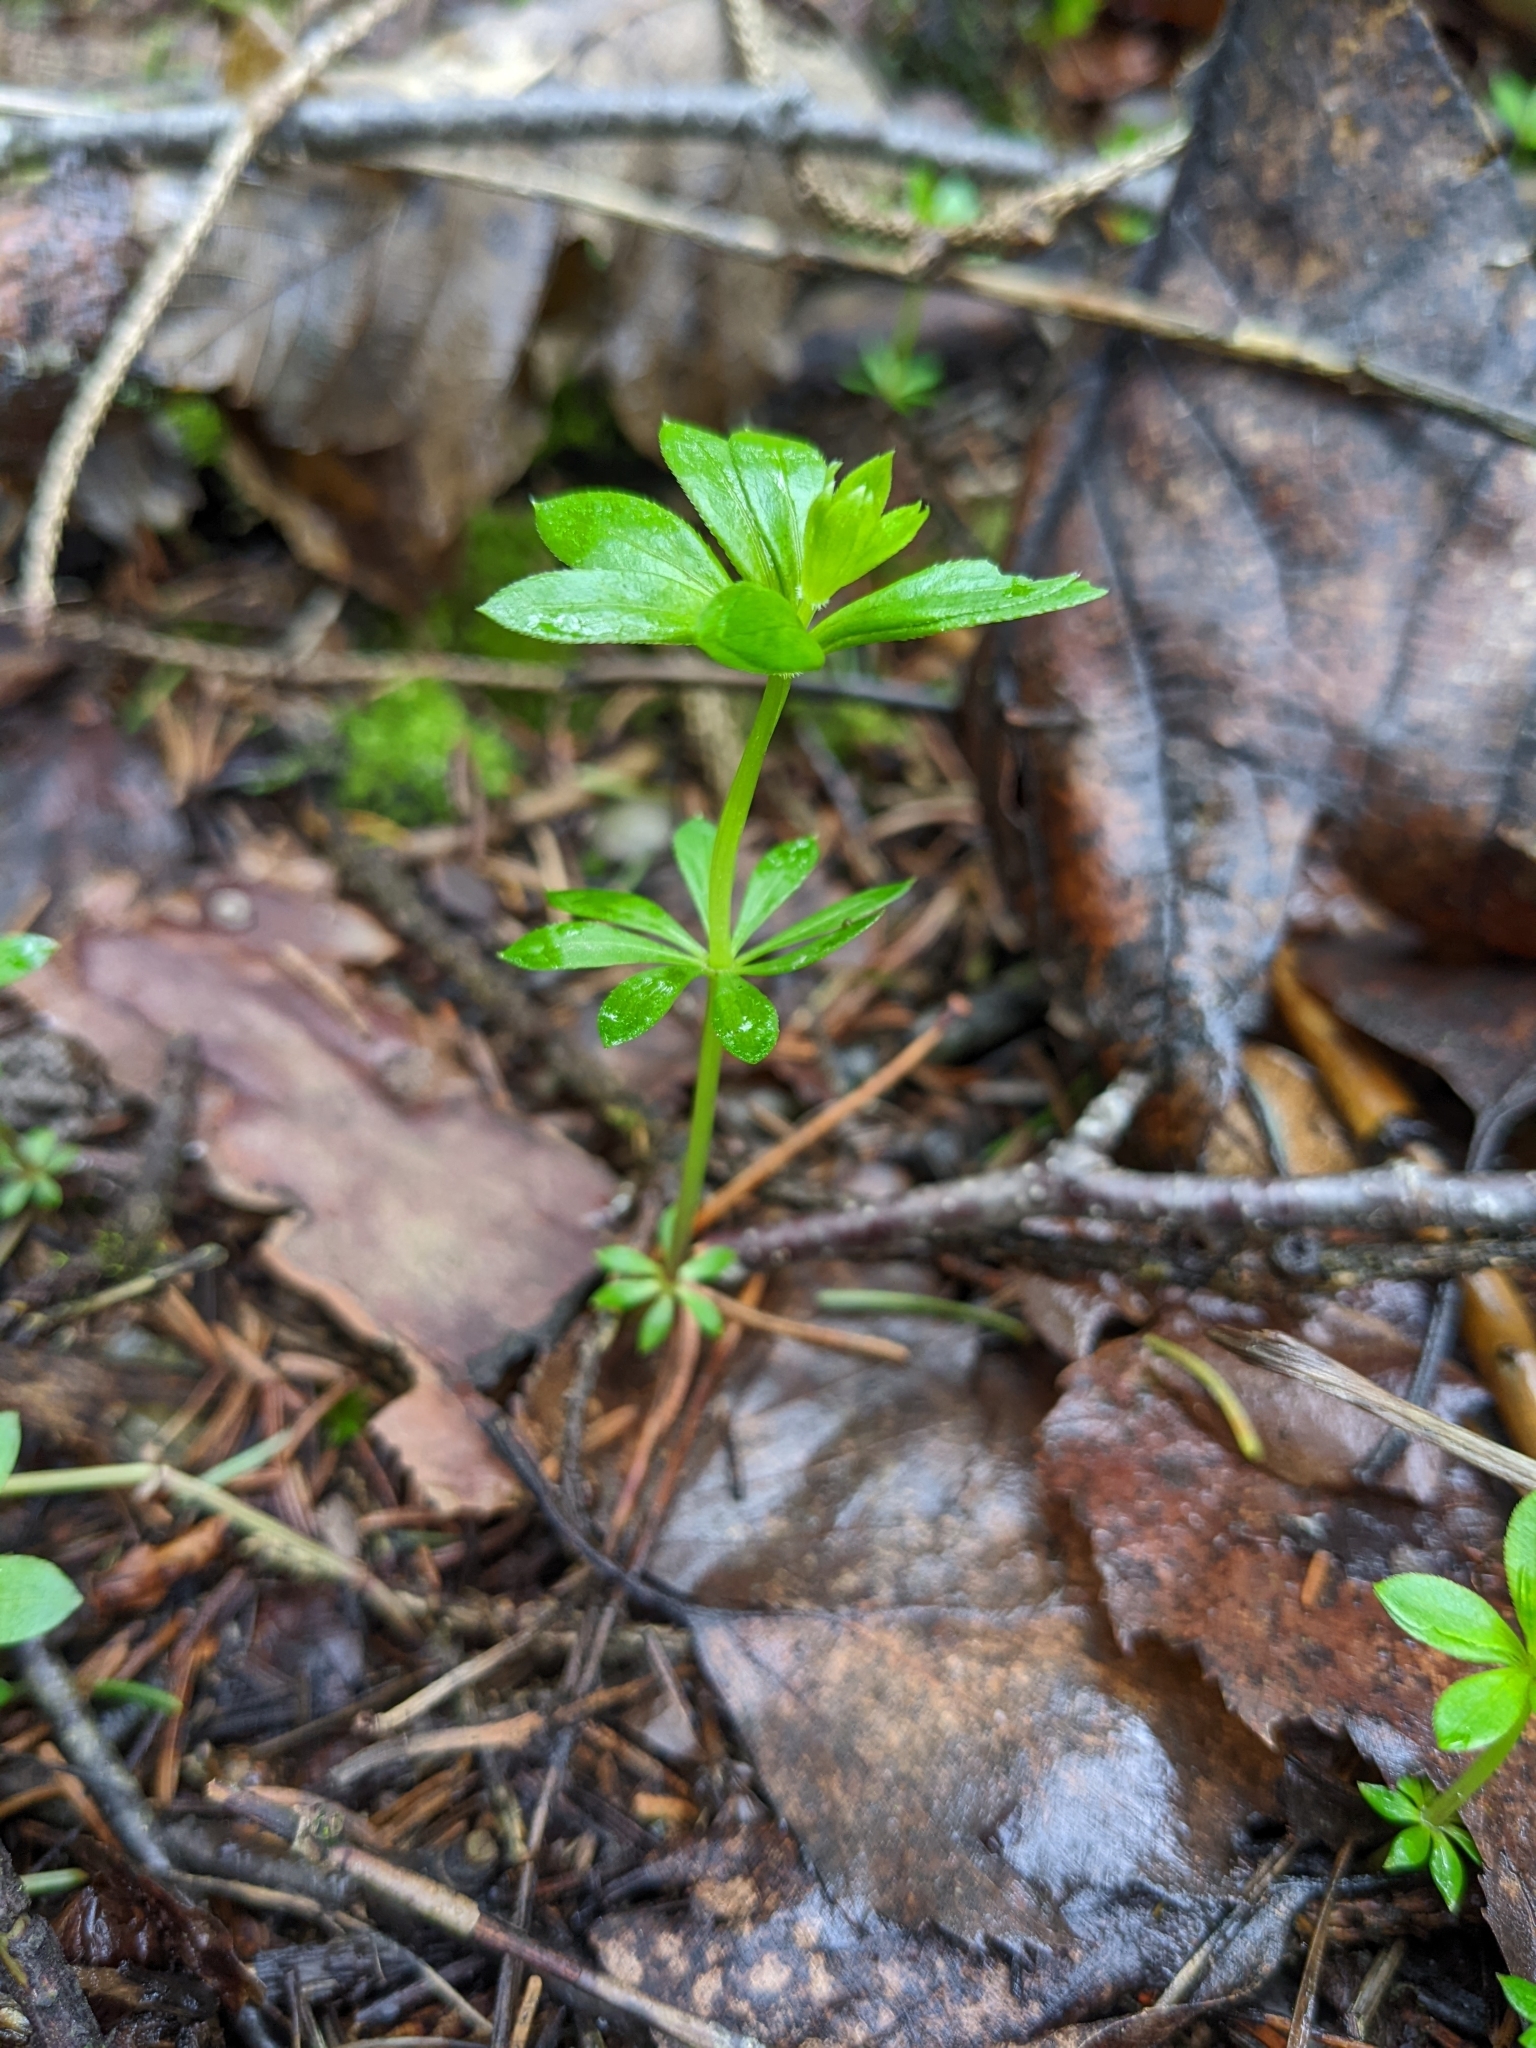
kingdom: Plantae
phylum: Tracheophyta
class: Magnoliopsida
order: Gentianales
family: Rubiaceae
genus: Galium
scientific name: Galium odoratum
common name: Sweet woodruff
